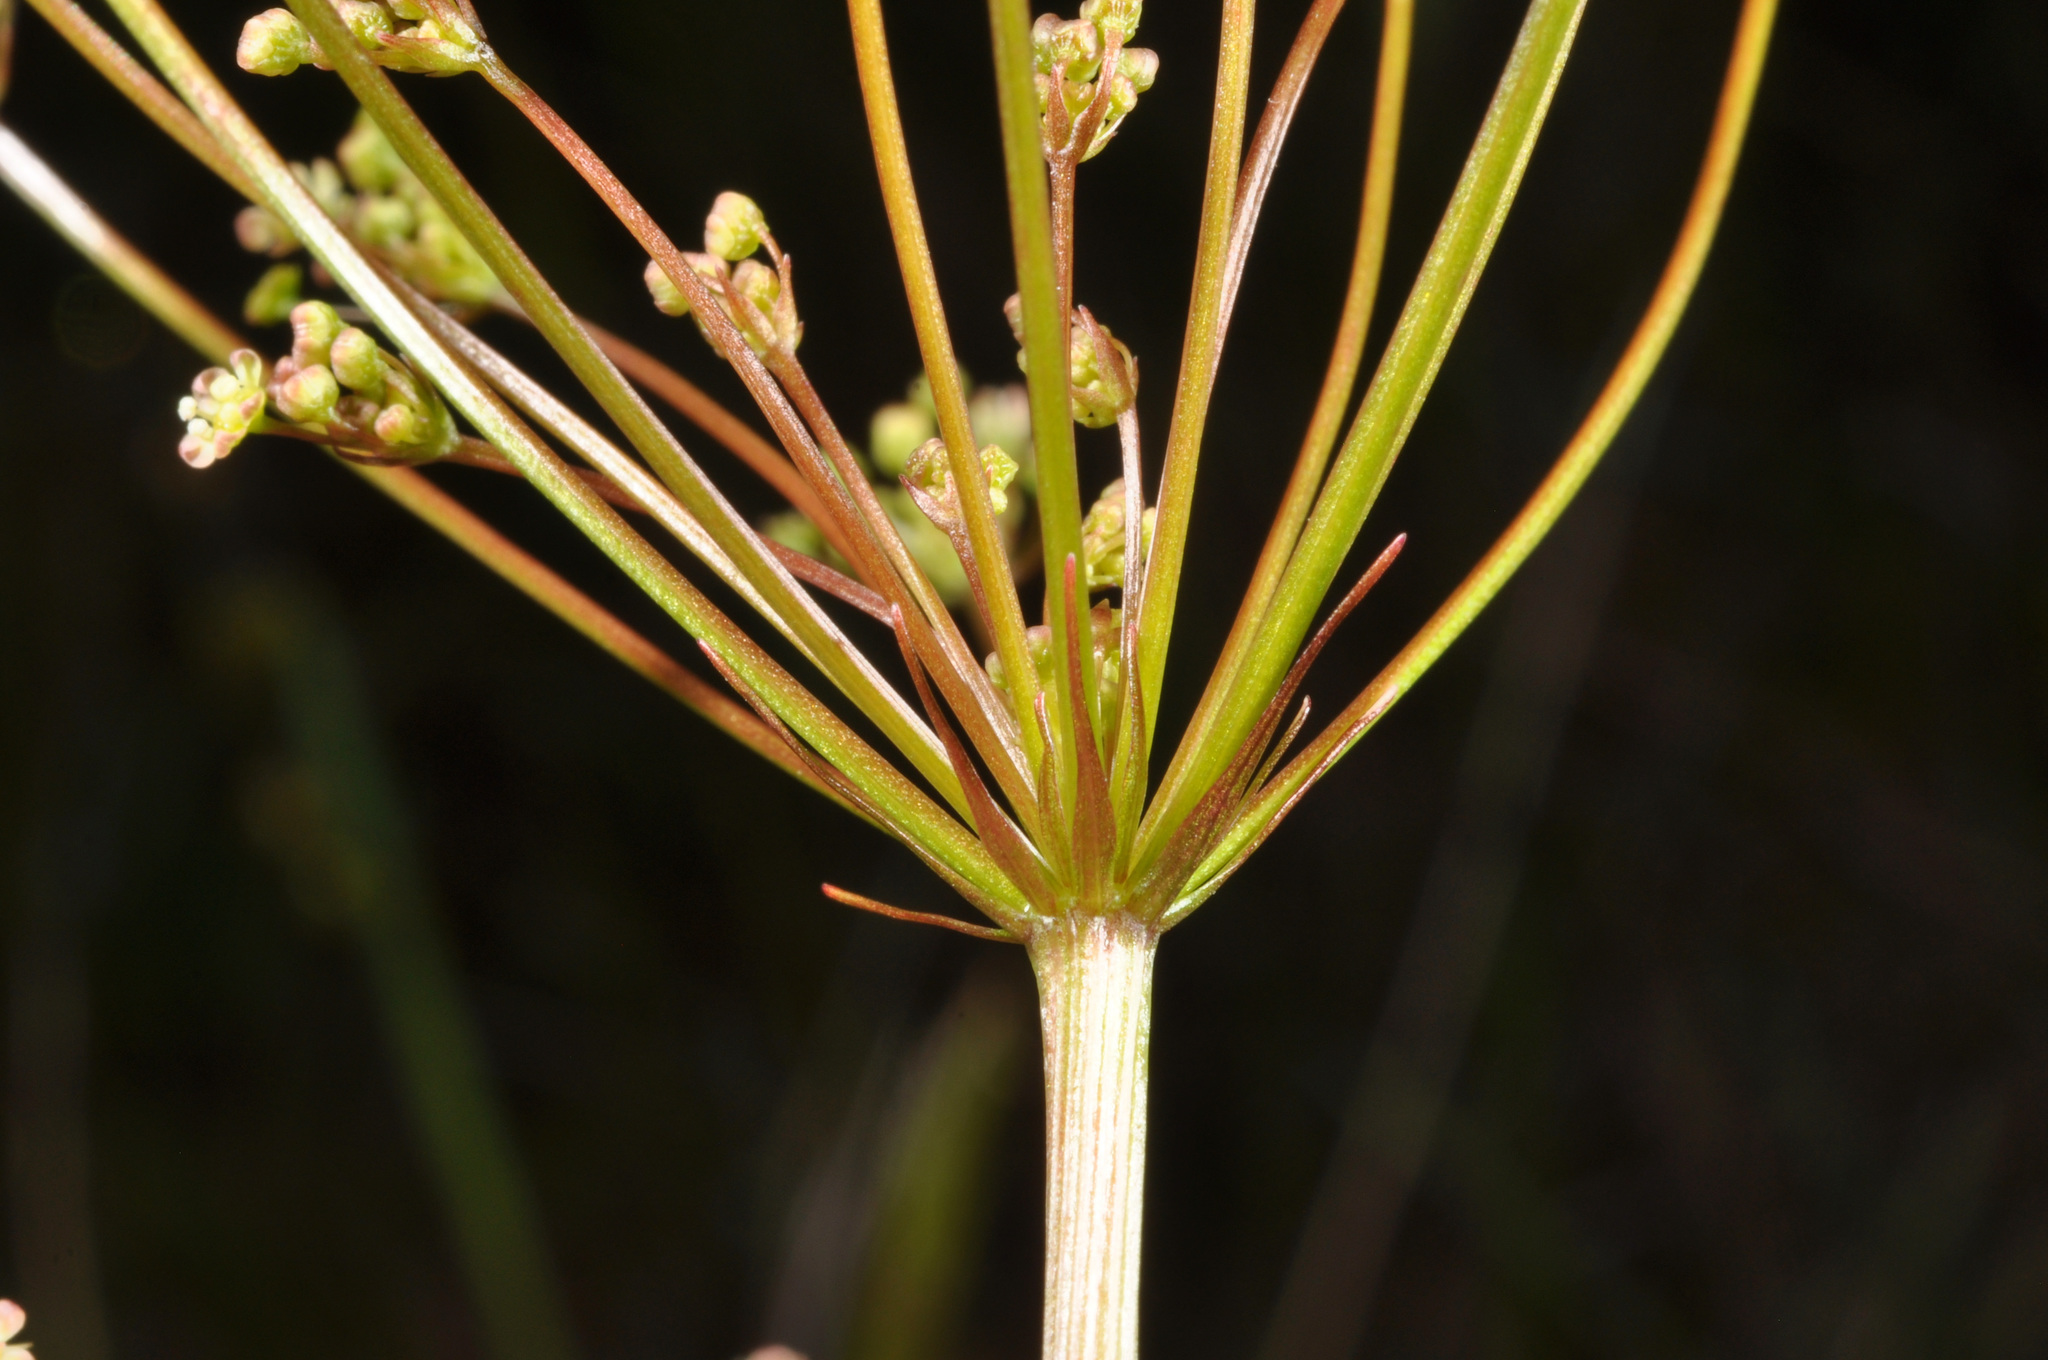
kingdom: Plantae
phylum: Tracheophyta
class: Magnoliopsida
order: Apiales
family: Apiaceae
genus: Anisotome
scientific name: Anisotome filifolia
